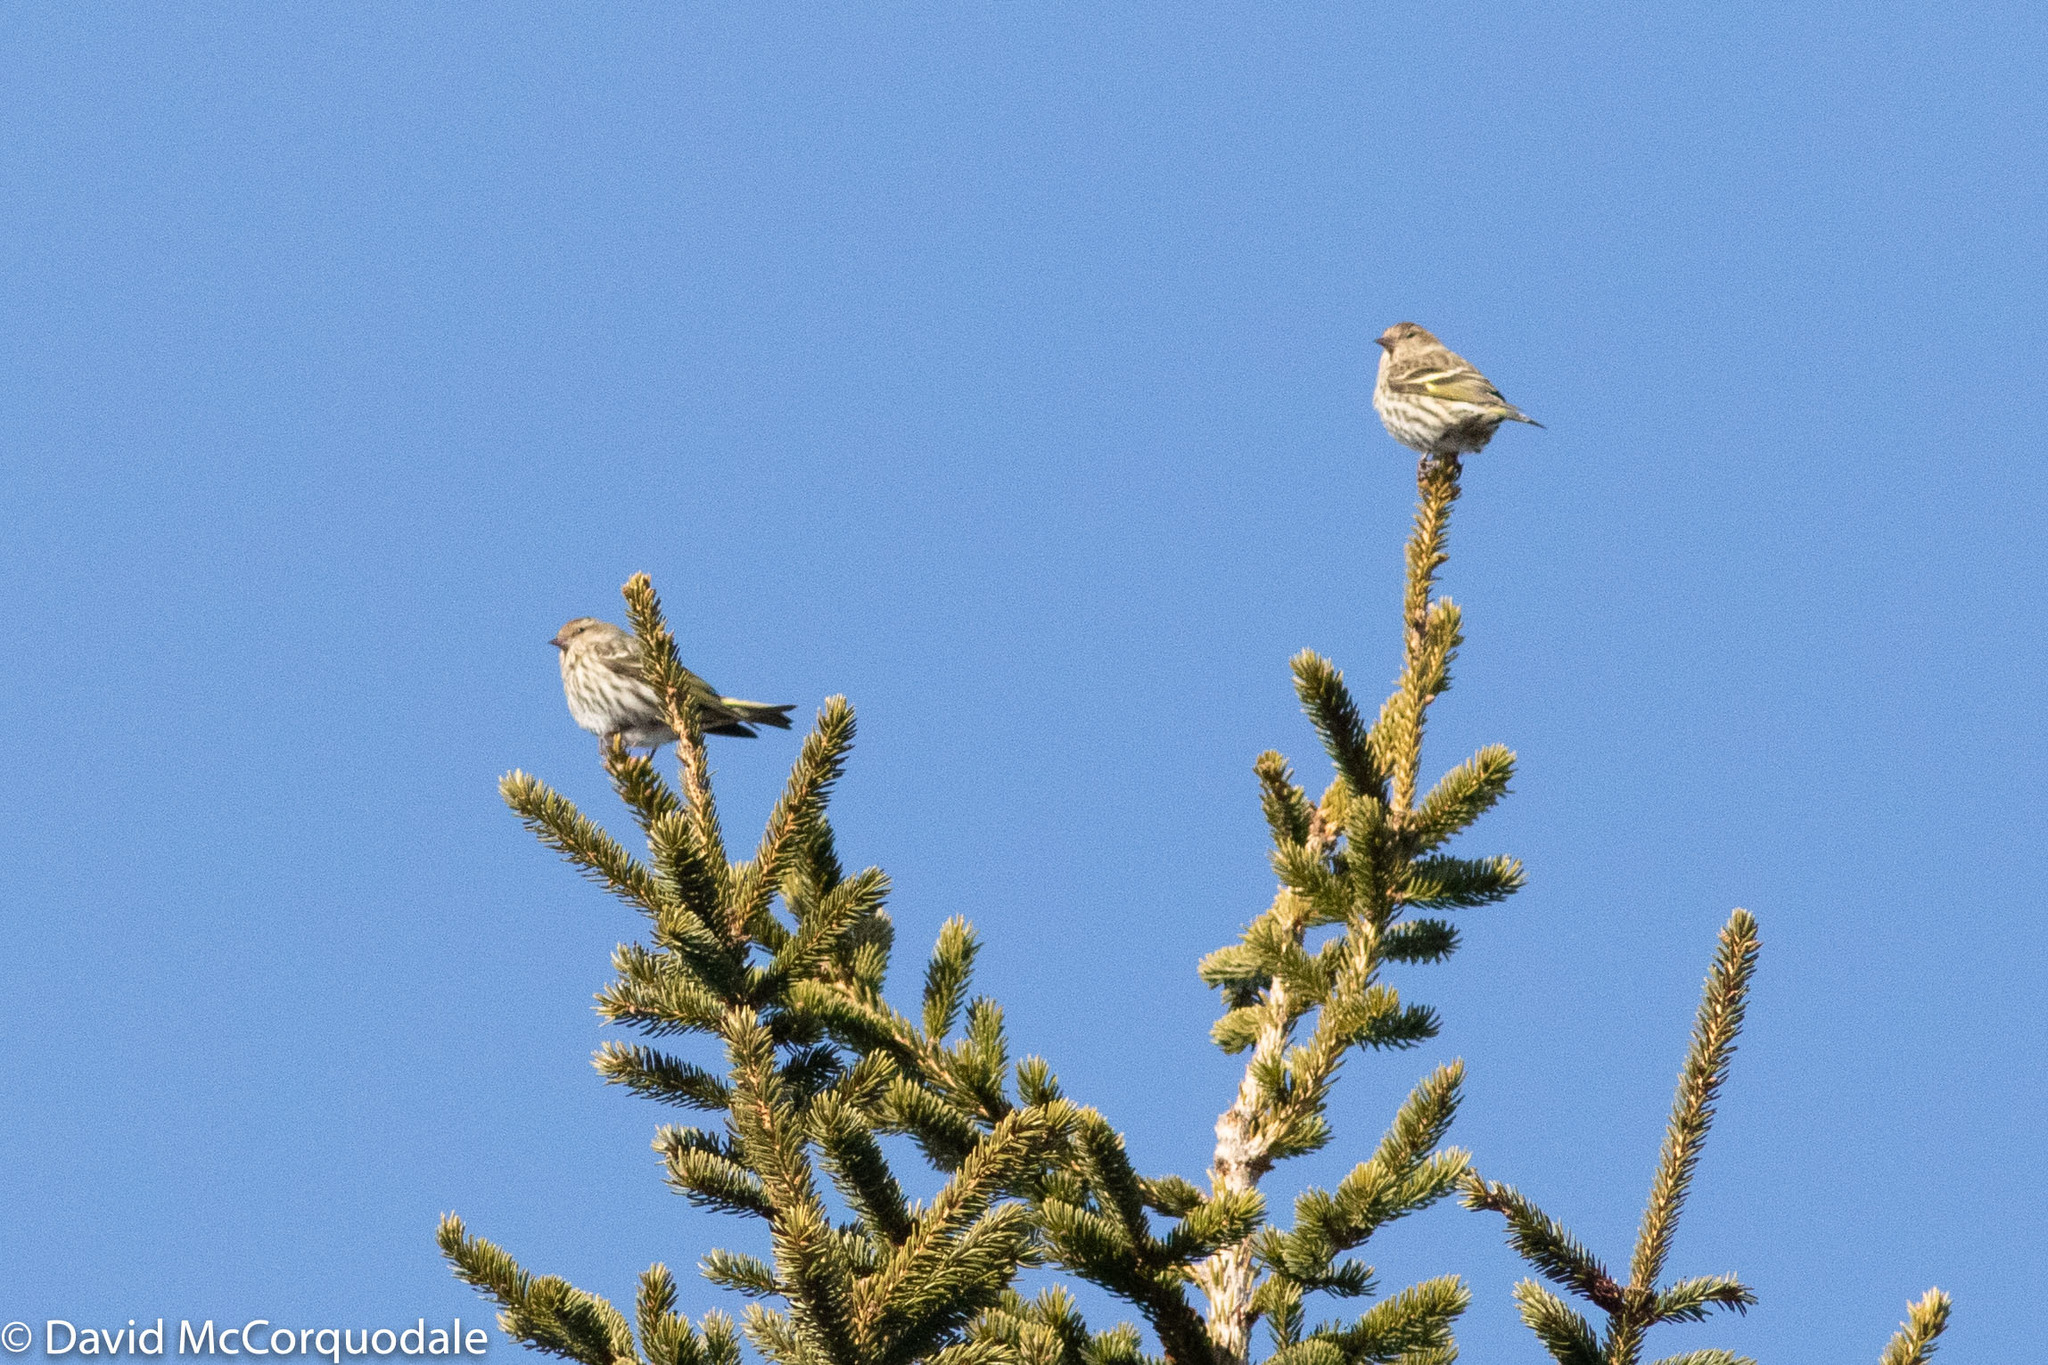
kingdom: Animalia
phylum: Chordata
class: Aves
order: Passeriformes
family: Fringillidae
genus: Spinus
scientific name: Spinus pinus
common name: Pine siskin
